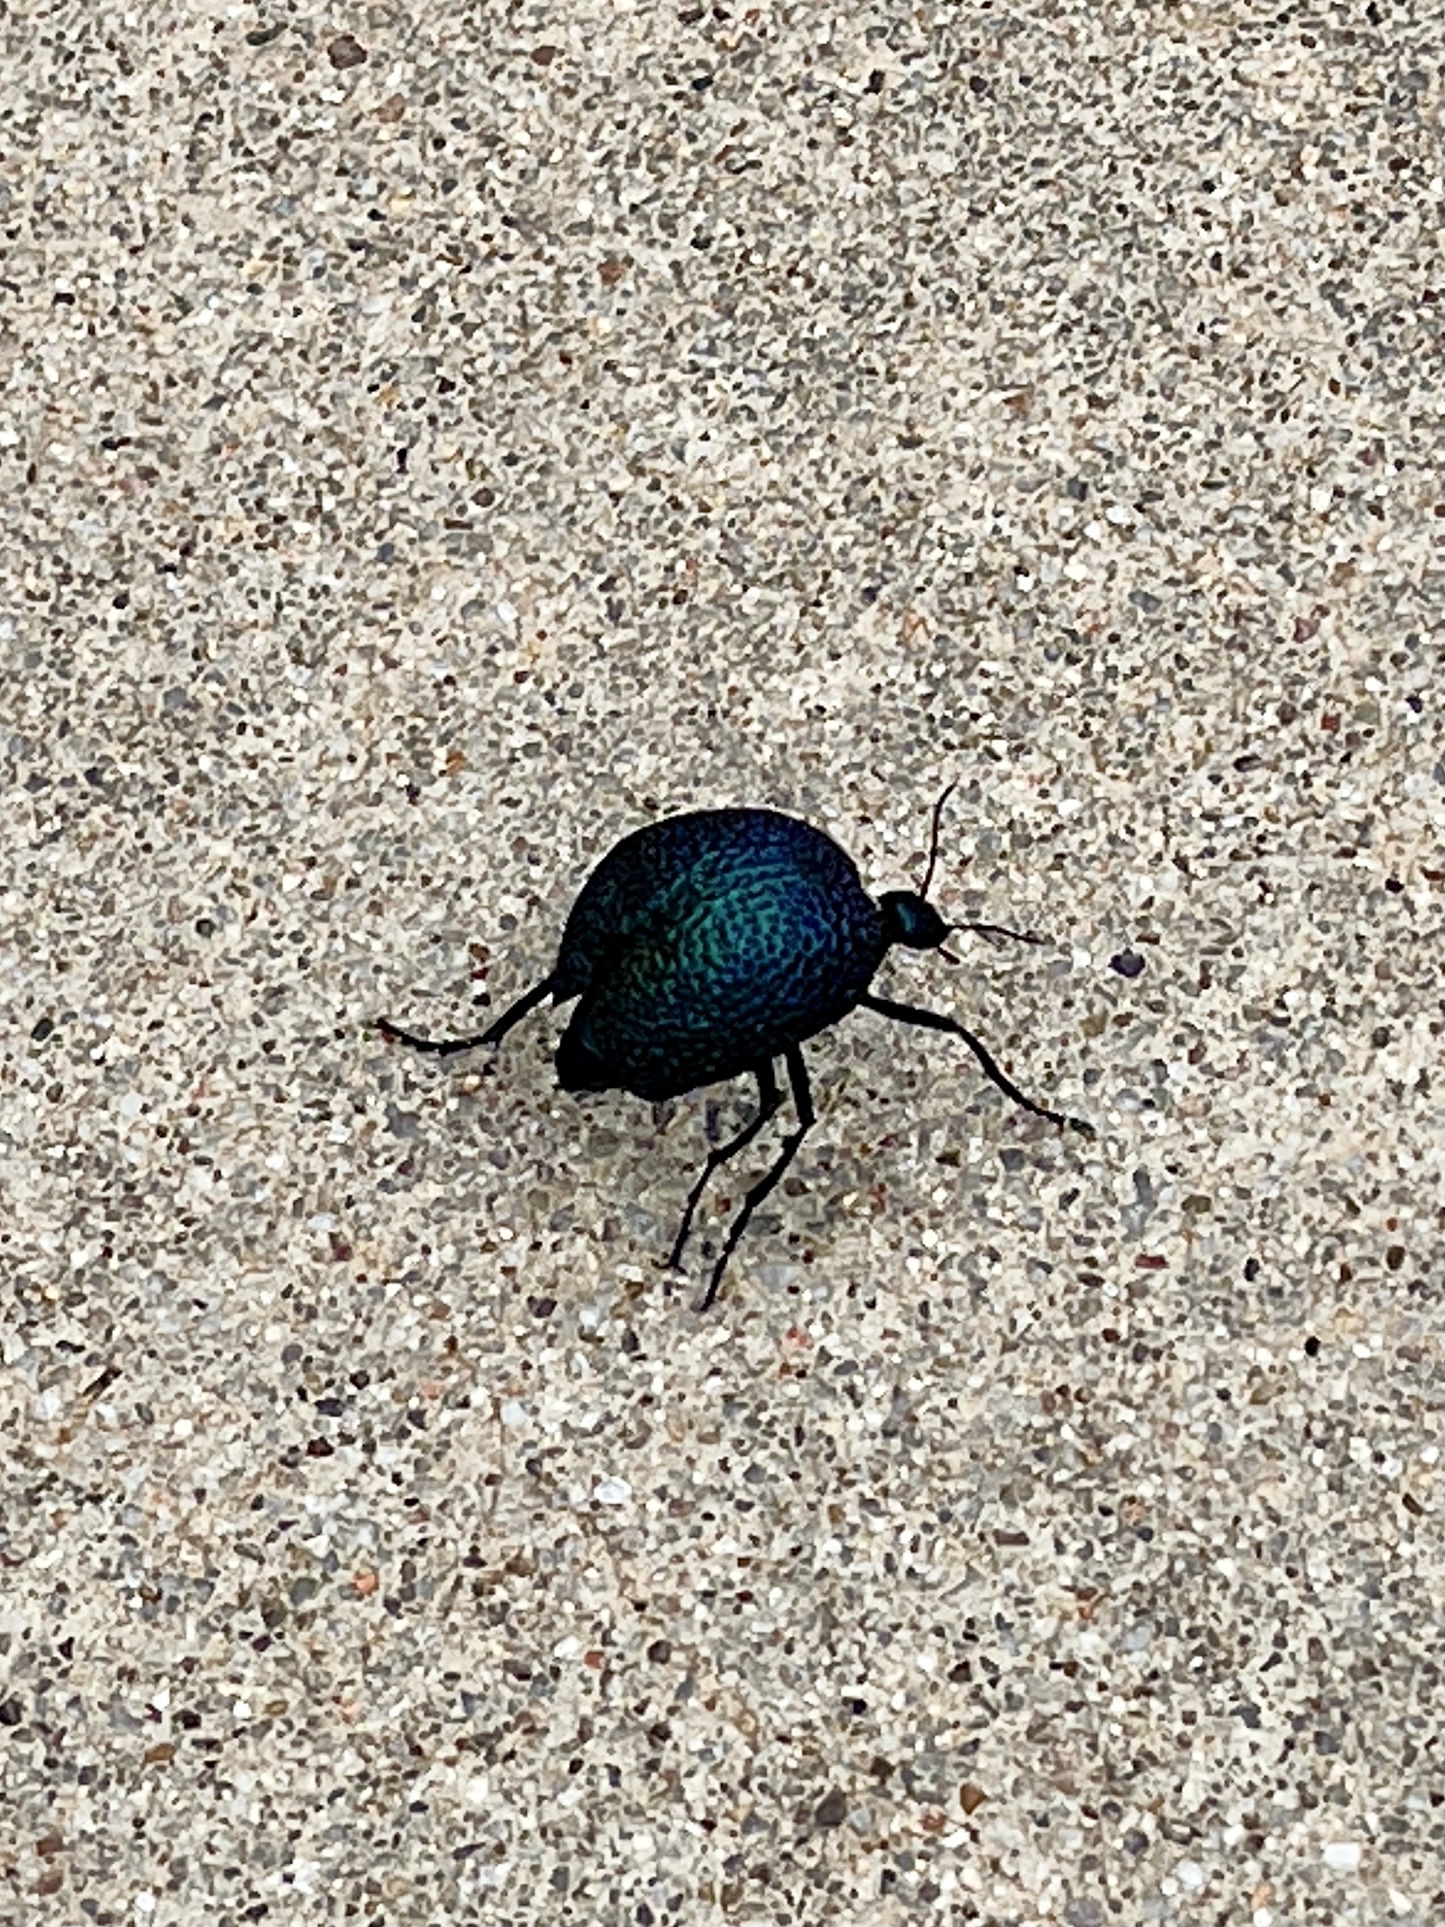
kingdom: Animalia
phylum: Arthropoda
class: Insecta
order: Coleoptera
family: Meloidae
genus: Cysteodemus
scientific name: Cysteodemus wislizeni
